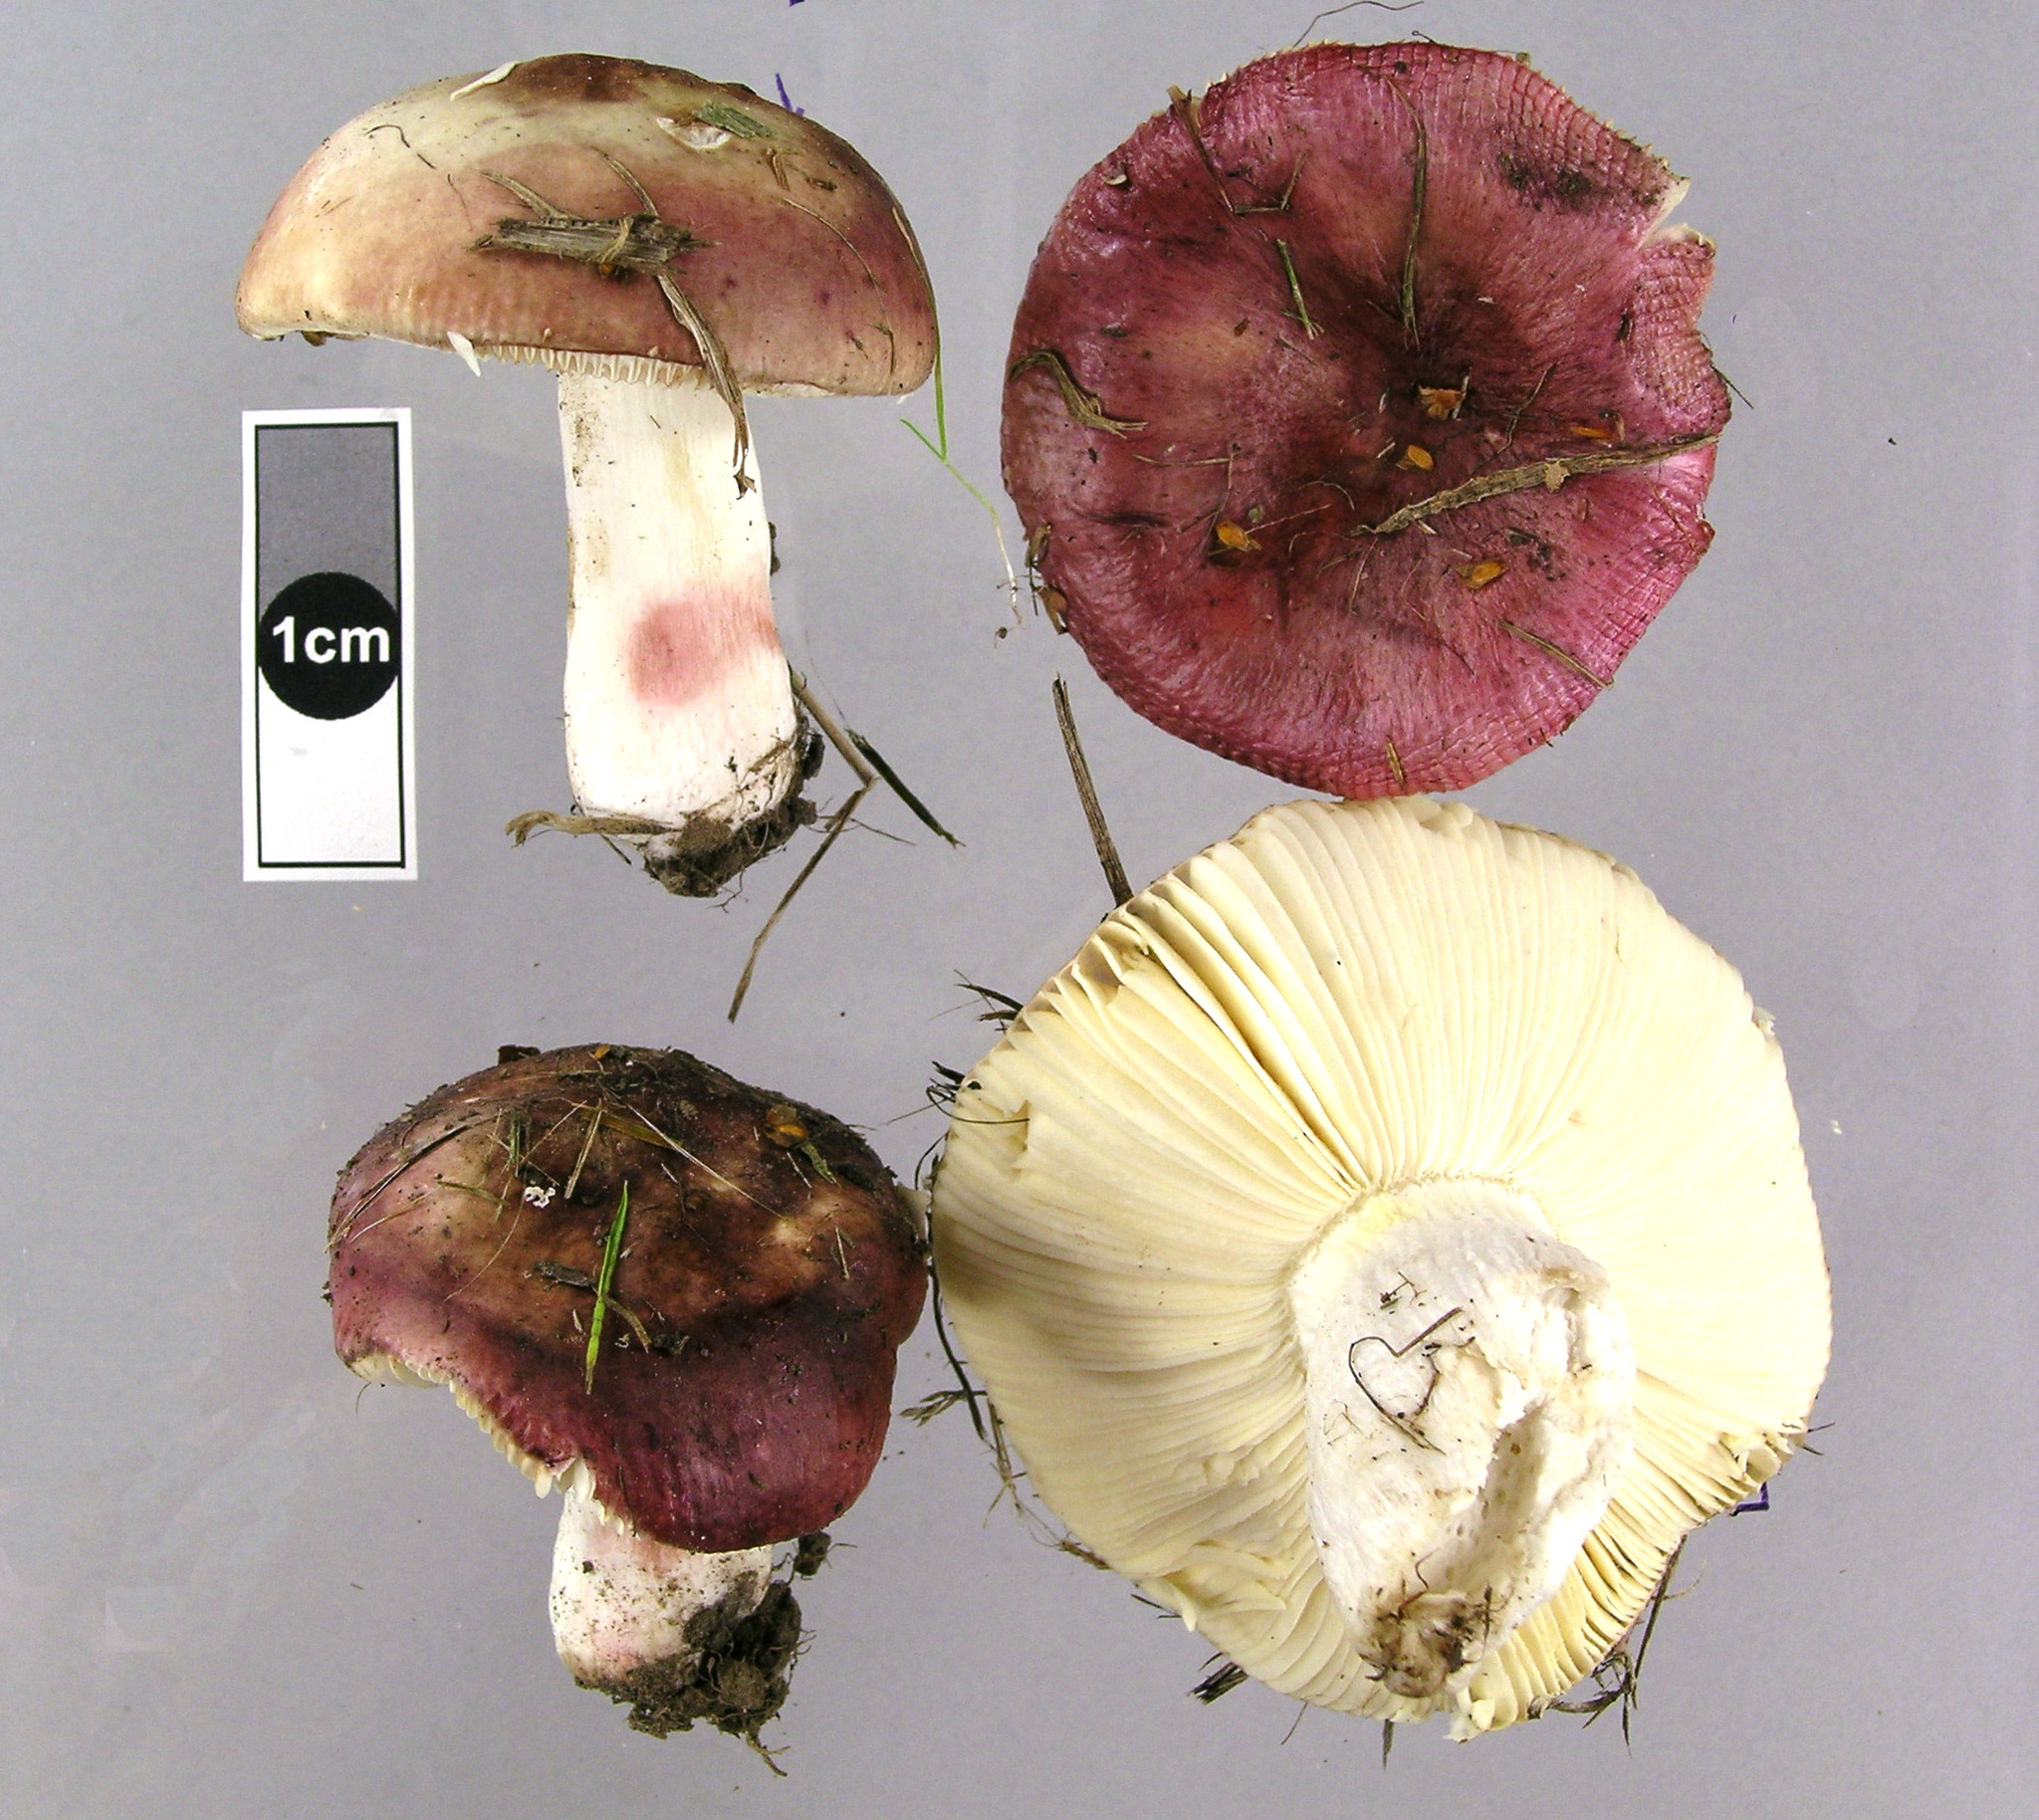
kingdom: Fungi
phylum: Basidiomycota
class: Agaricomycetes
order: Russulales
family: Russulaceae
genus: Russula
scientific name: Russula nitida
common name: Purple swamp brittlegill
